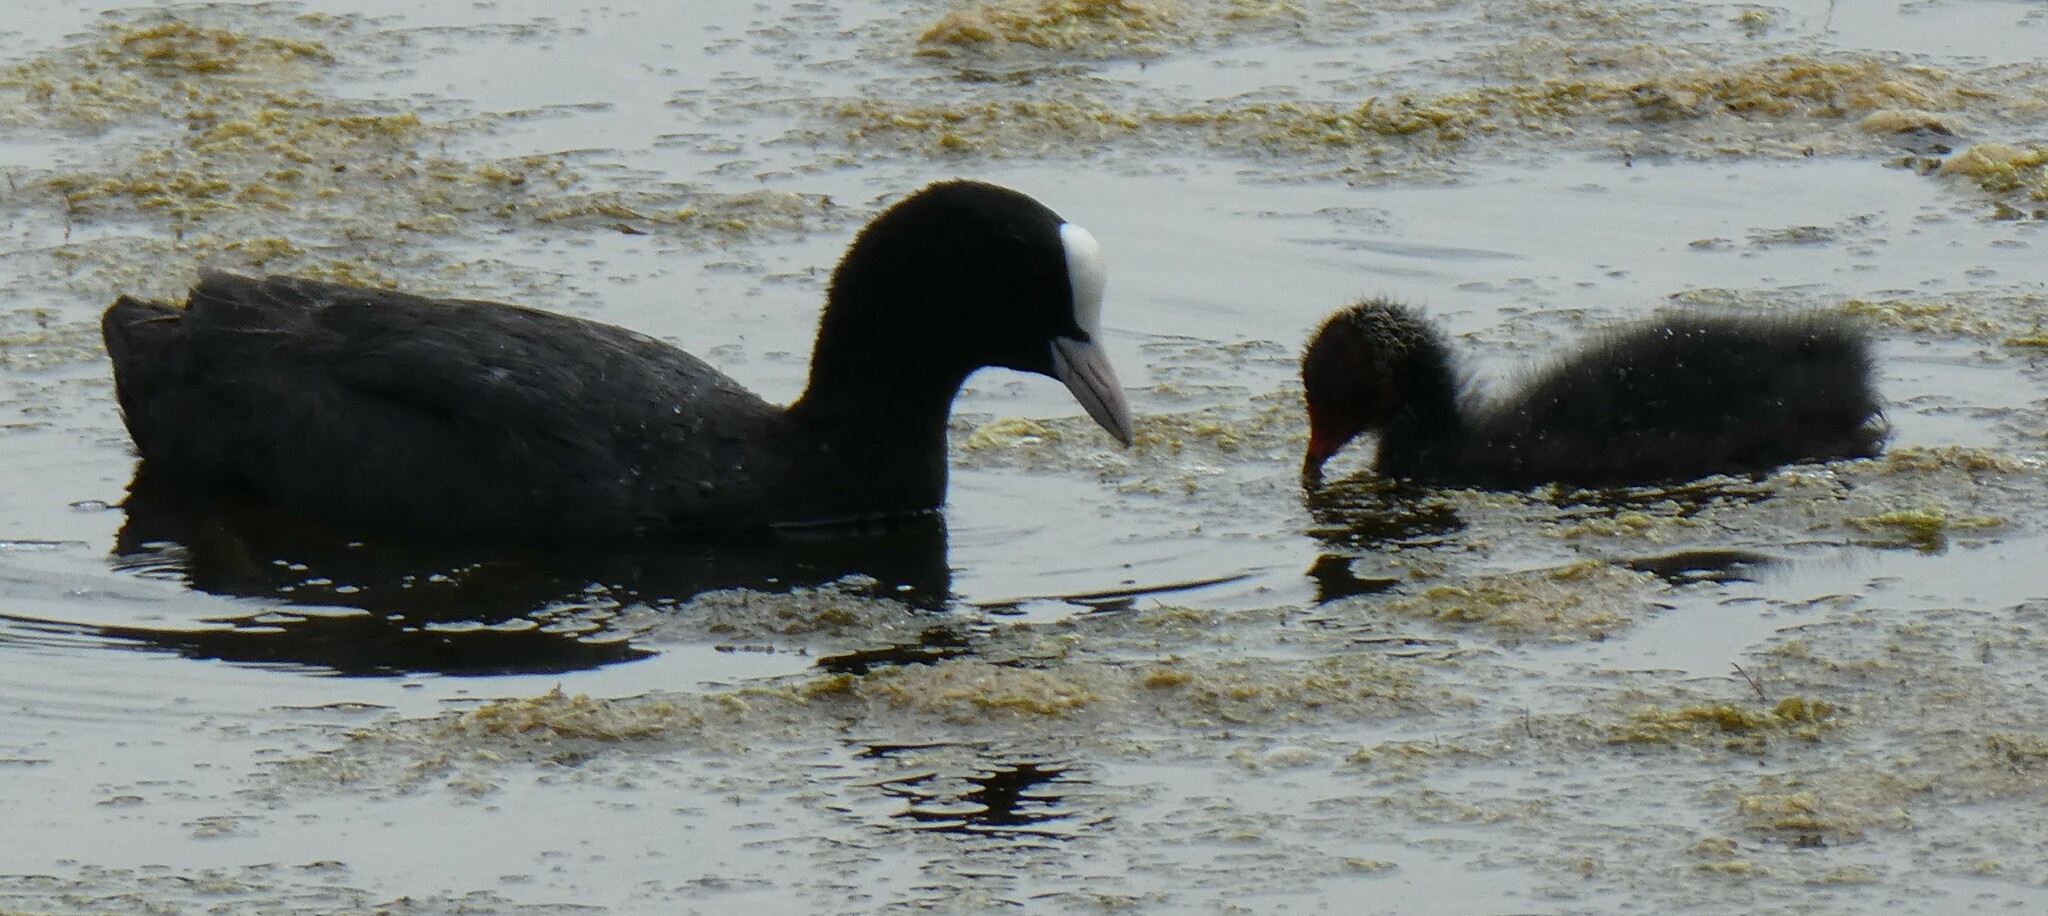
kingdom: Animalia
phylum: Chordata
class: Aves
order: Gruiformes
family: Rallidae
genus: Fulica
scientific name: Fulica atra
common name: Eurasian coot
